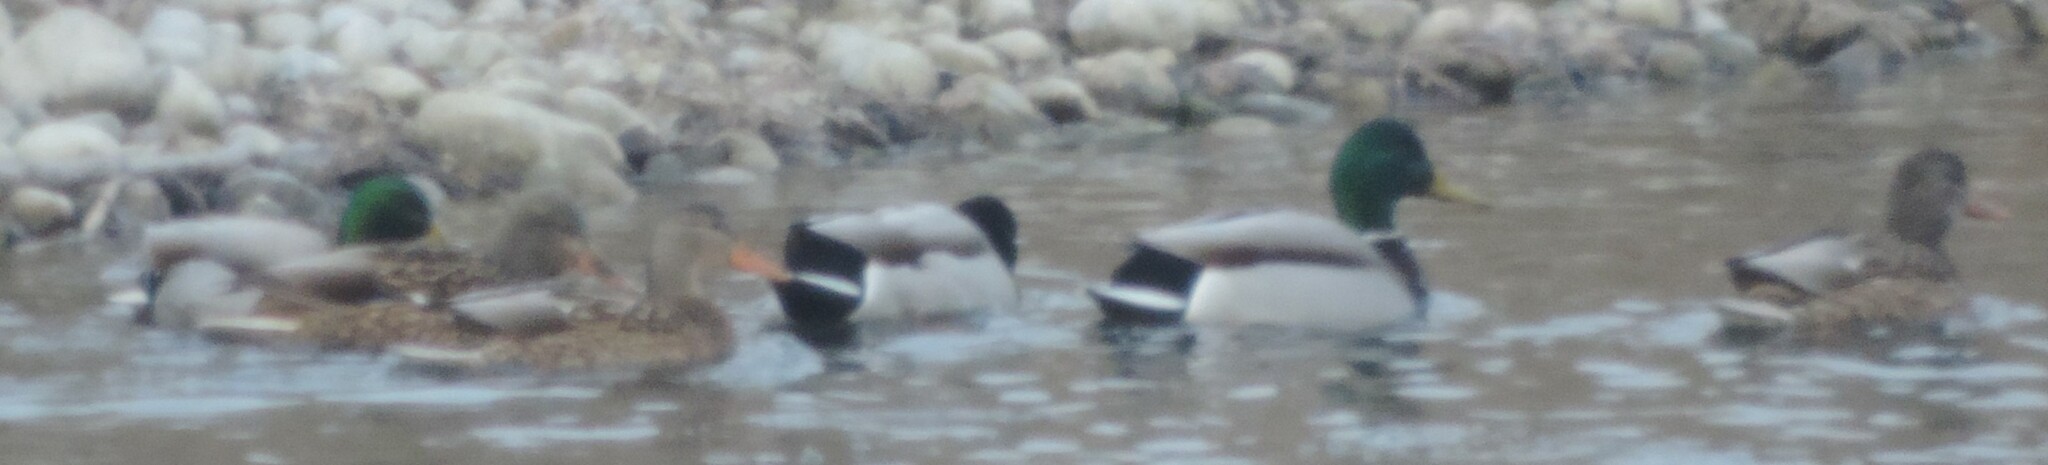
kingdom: Animalia
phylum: Chordata
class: Aves
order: Anseriformes
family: Anatidae
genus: Anas
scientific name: Anas platyrhynchos
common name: Mallard
